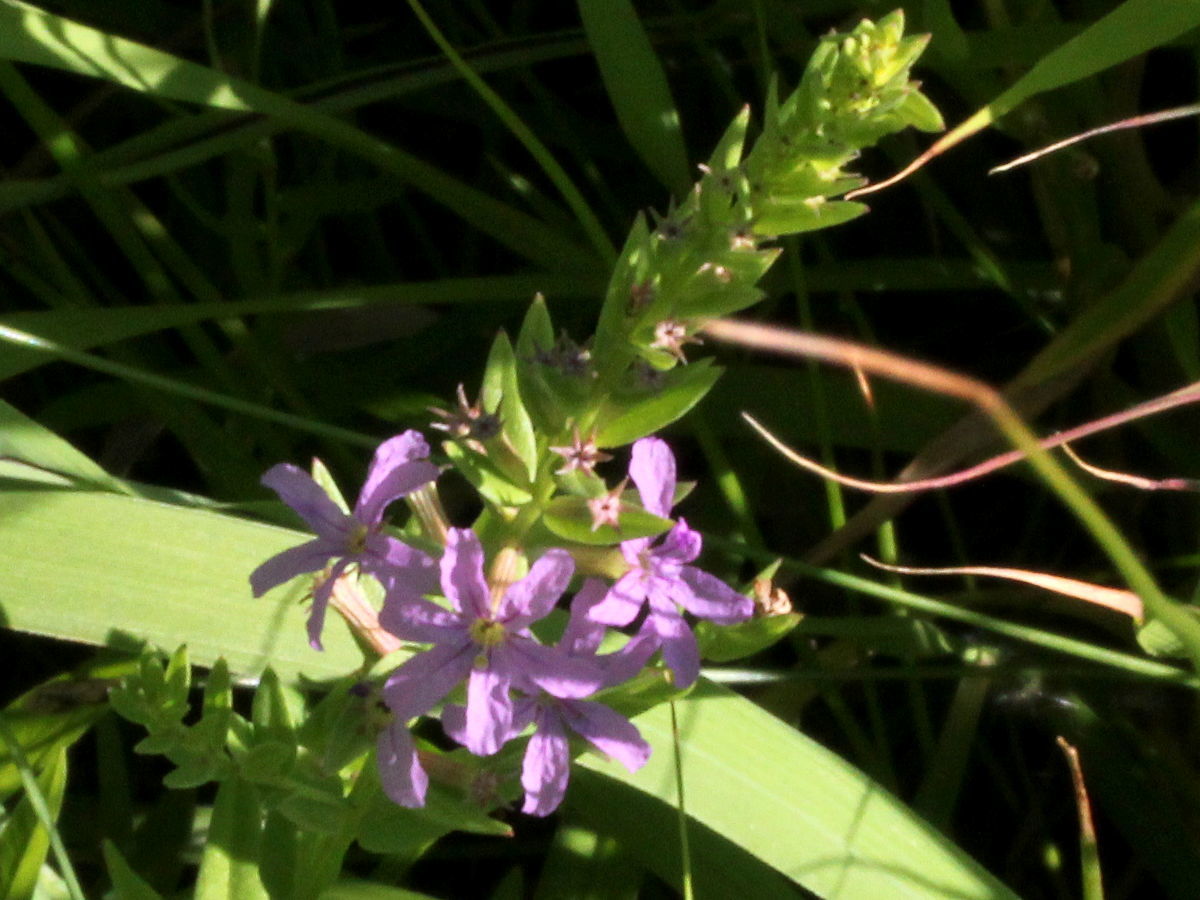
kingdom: Plantae
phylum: Tracheophyta
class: Magnoliopsida
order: Myrtales
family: Lythraceae
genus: Lythrum
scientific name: Lythrum alatum
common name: Winged loosestrife
